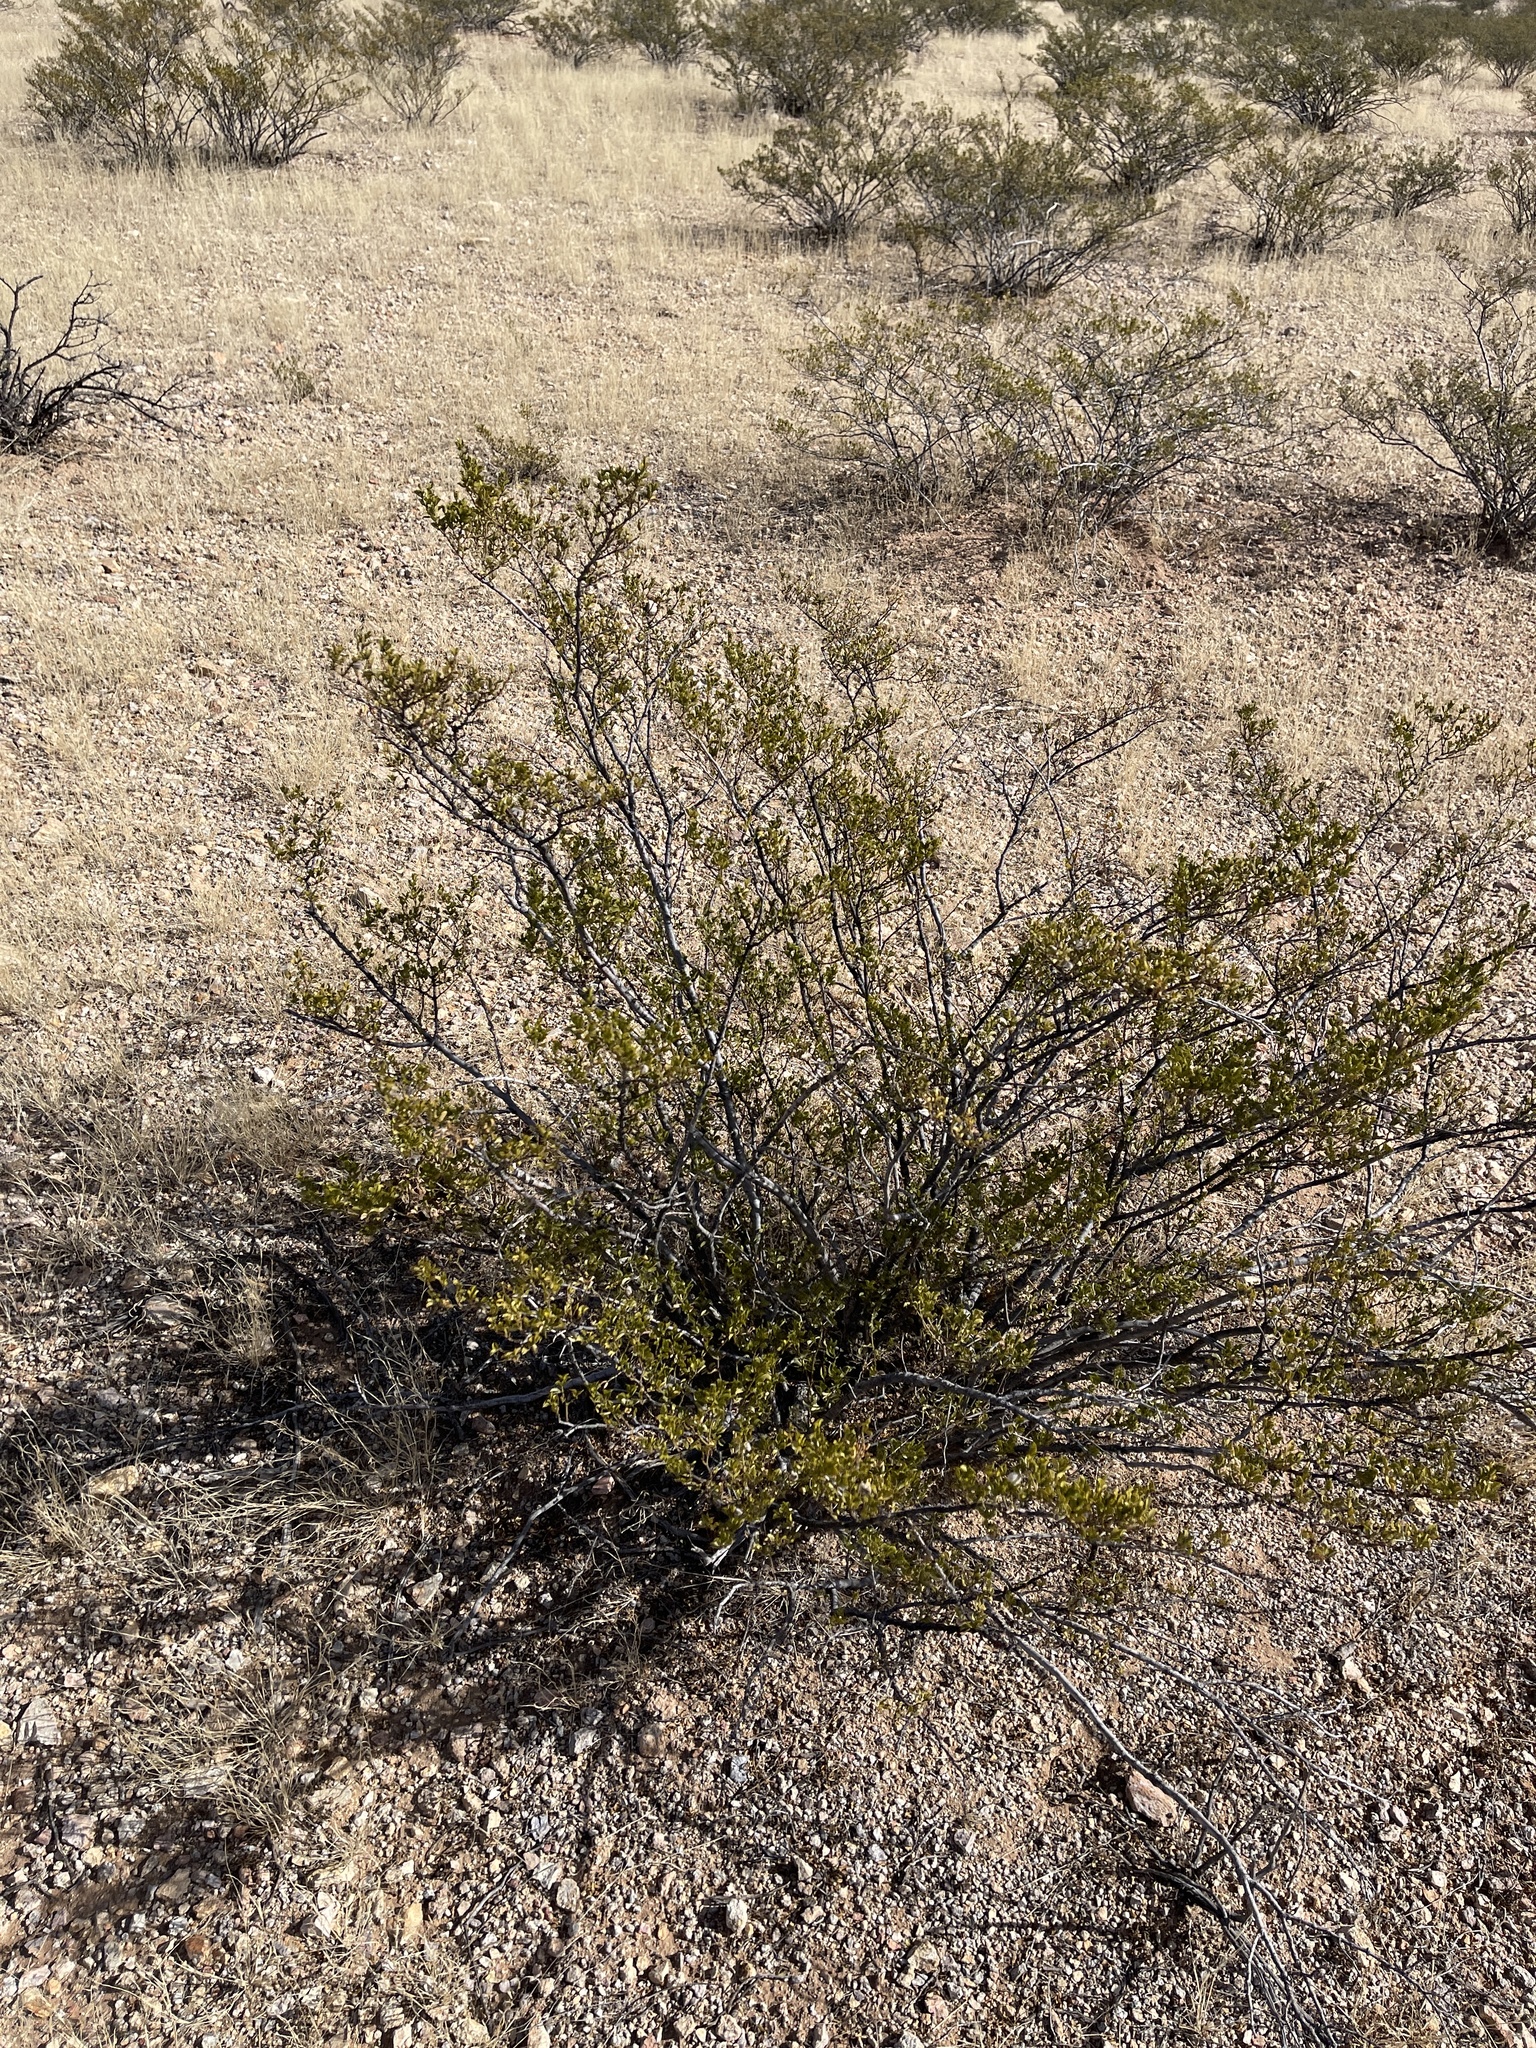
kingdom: Plantae
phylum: Tracheophyta
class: Magnoliopsida
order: Zygophyllales
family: Zygophyllaceae
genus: Larrea
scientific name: Larrea tridentata
